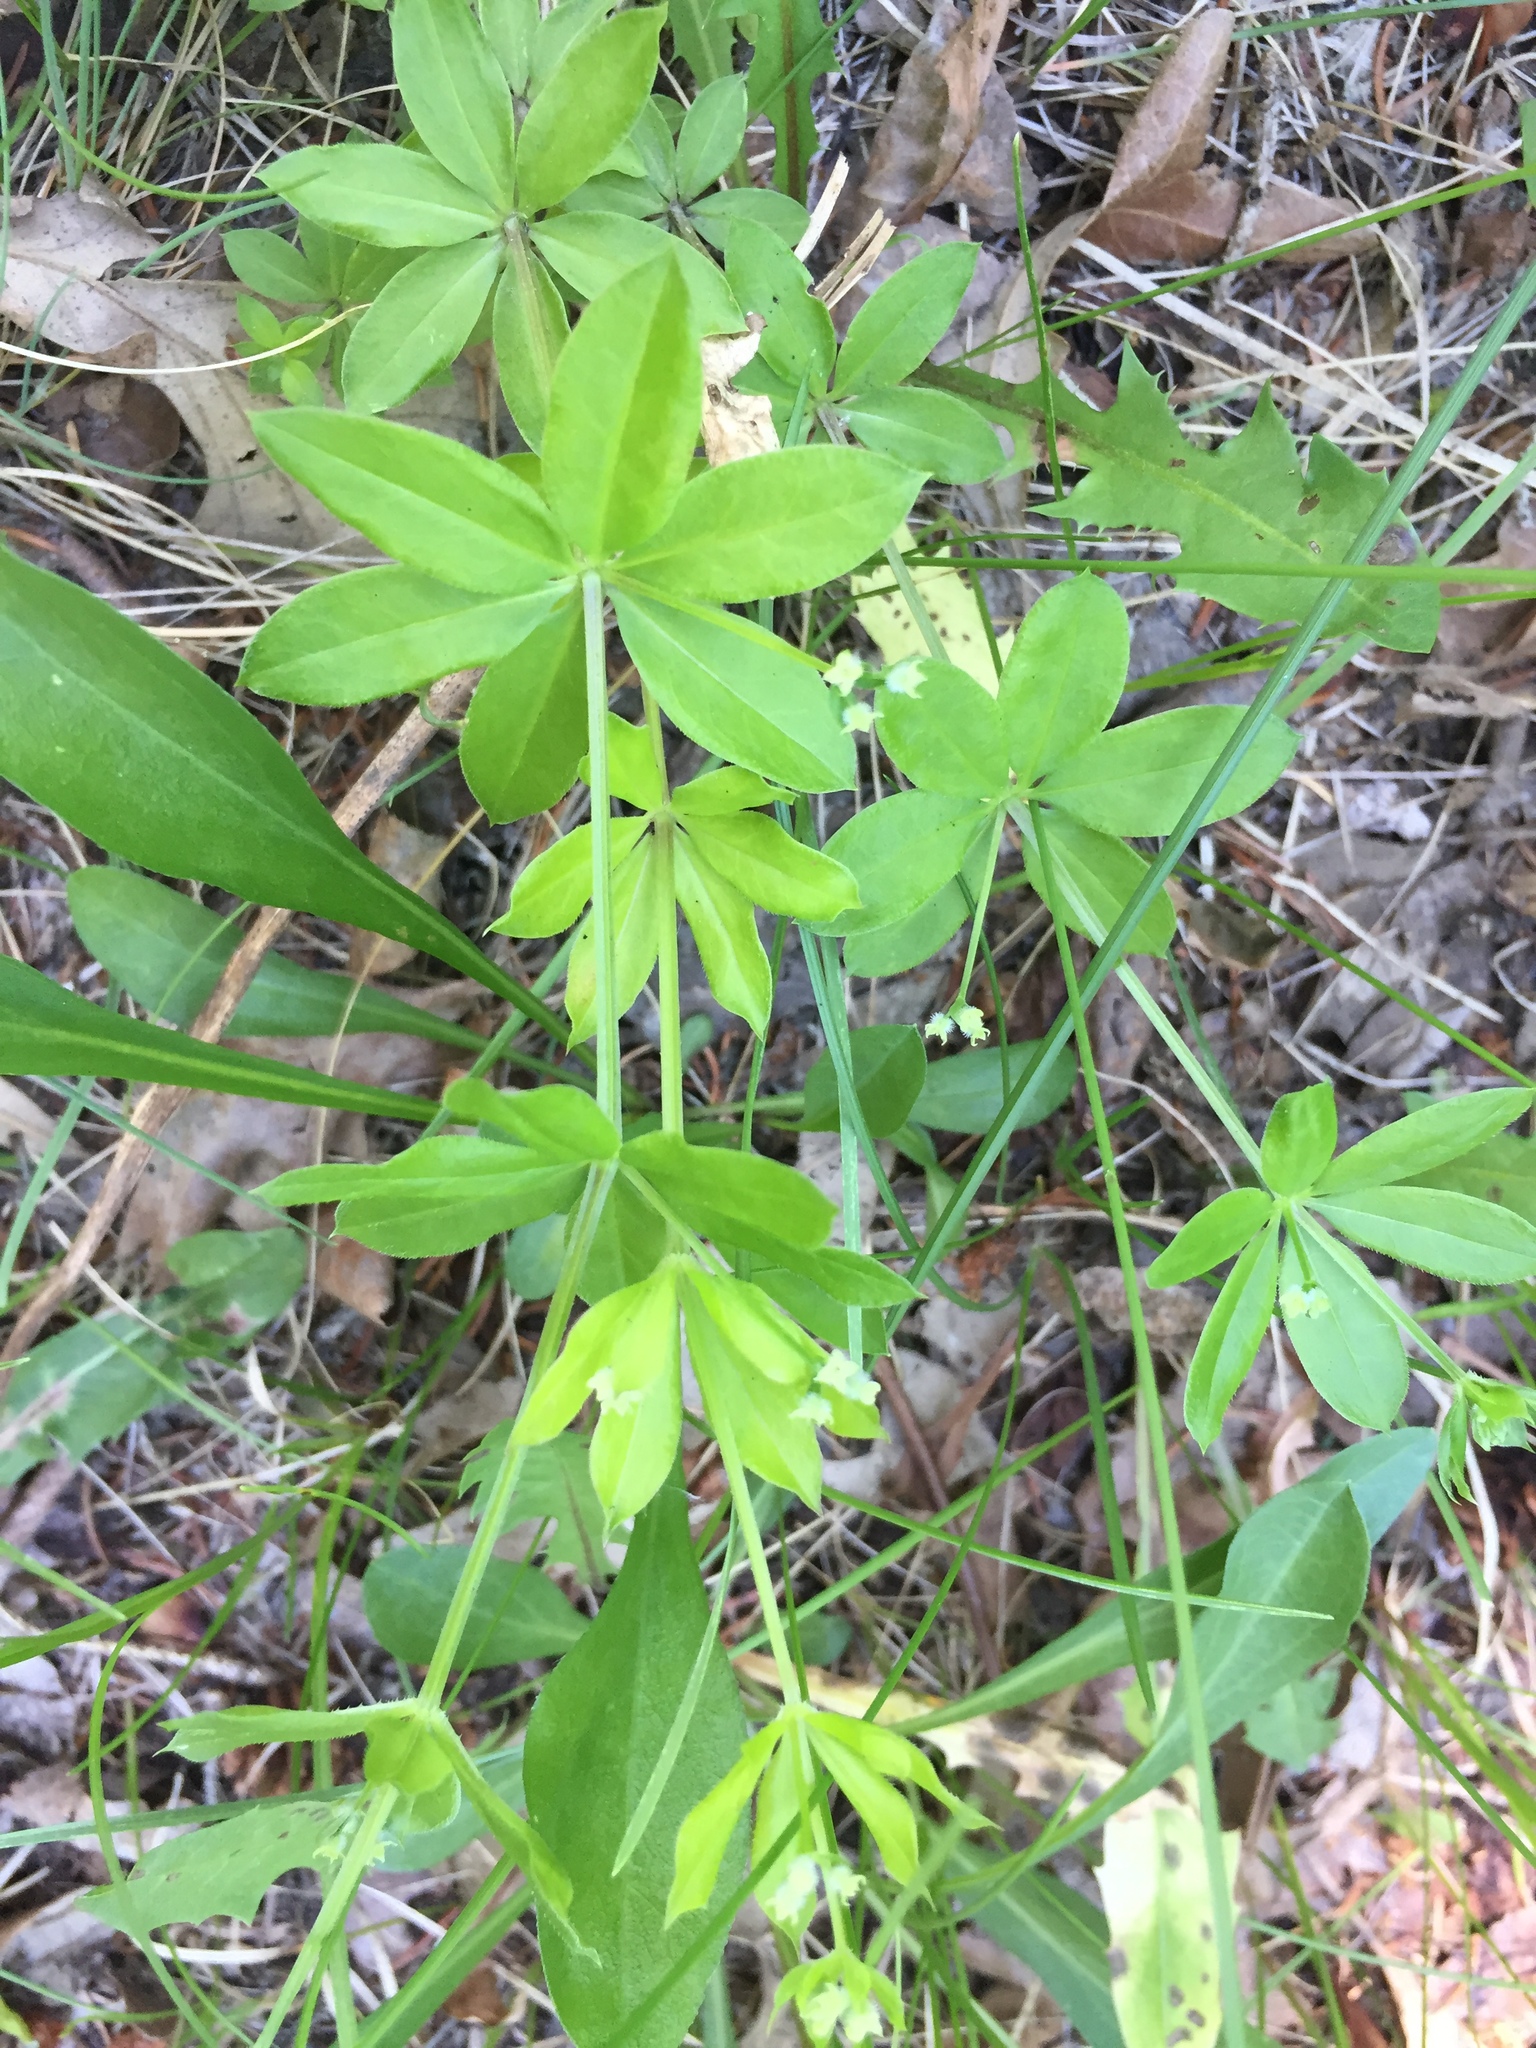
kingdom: Plantae
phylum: Tracheophyta
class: Magnoliopsida
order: Gentianales
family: Rubiaceae
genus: Galium
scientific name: Galium triflorum
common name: Fragrant bedstraw
